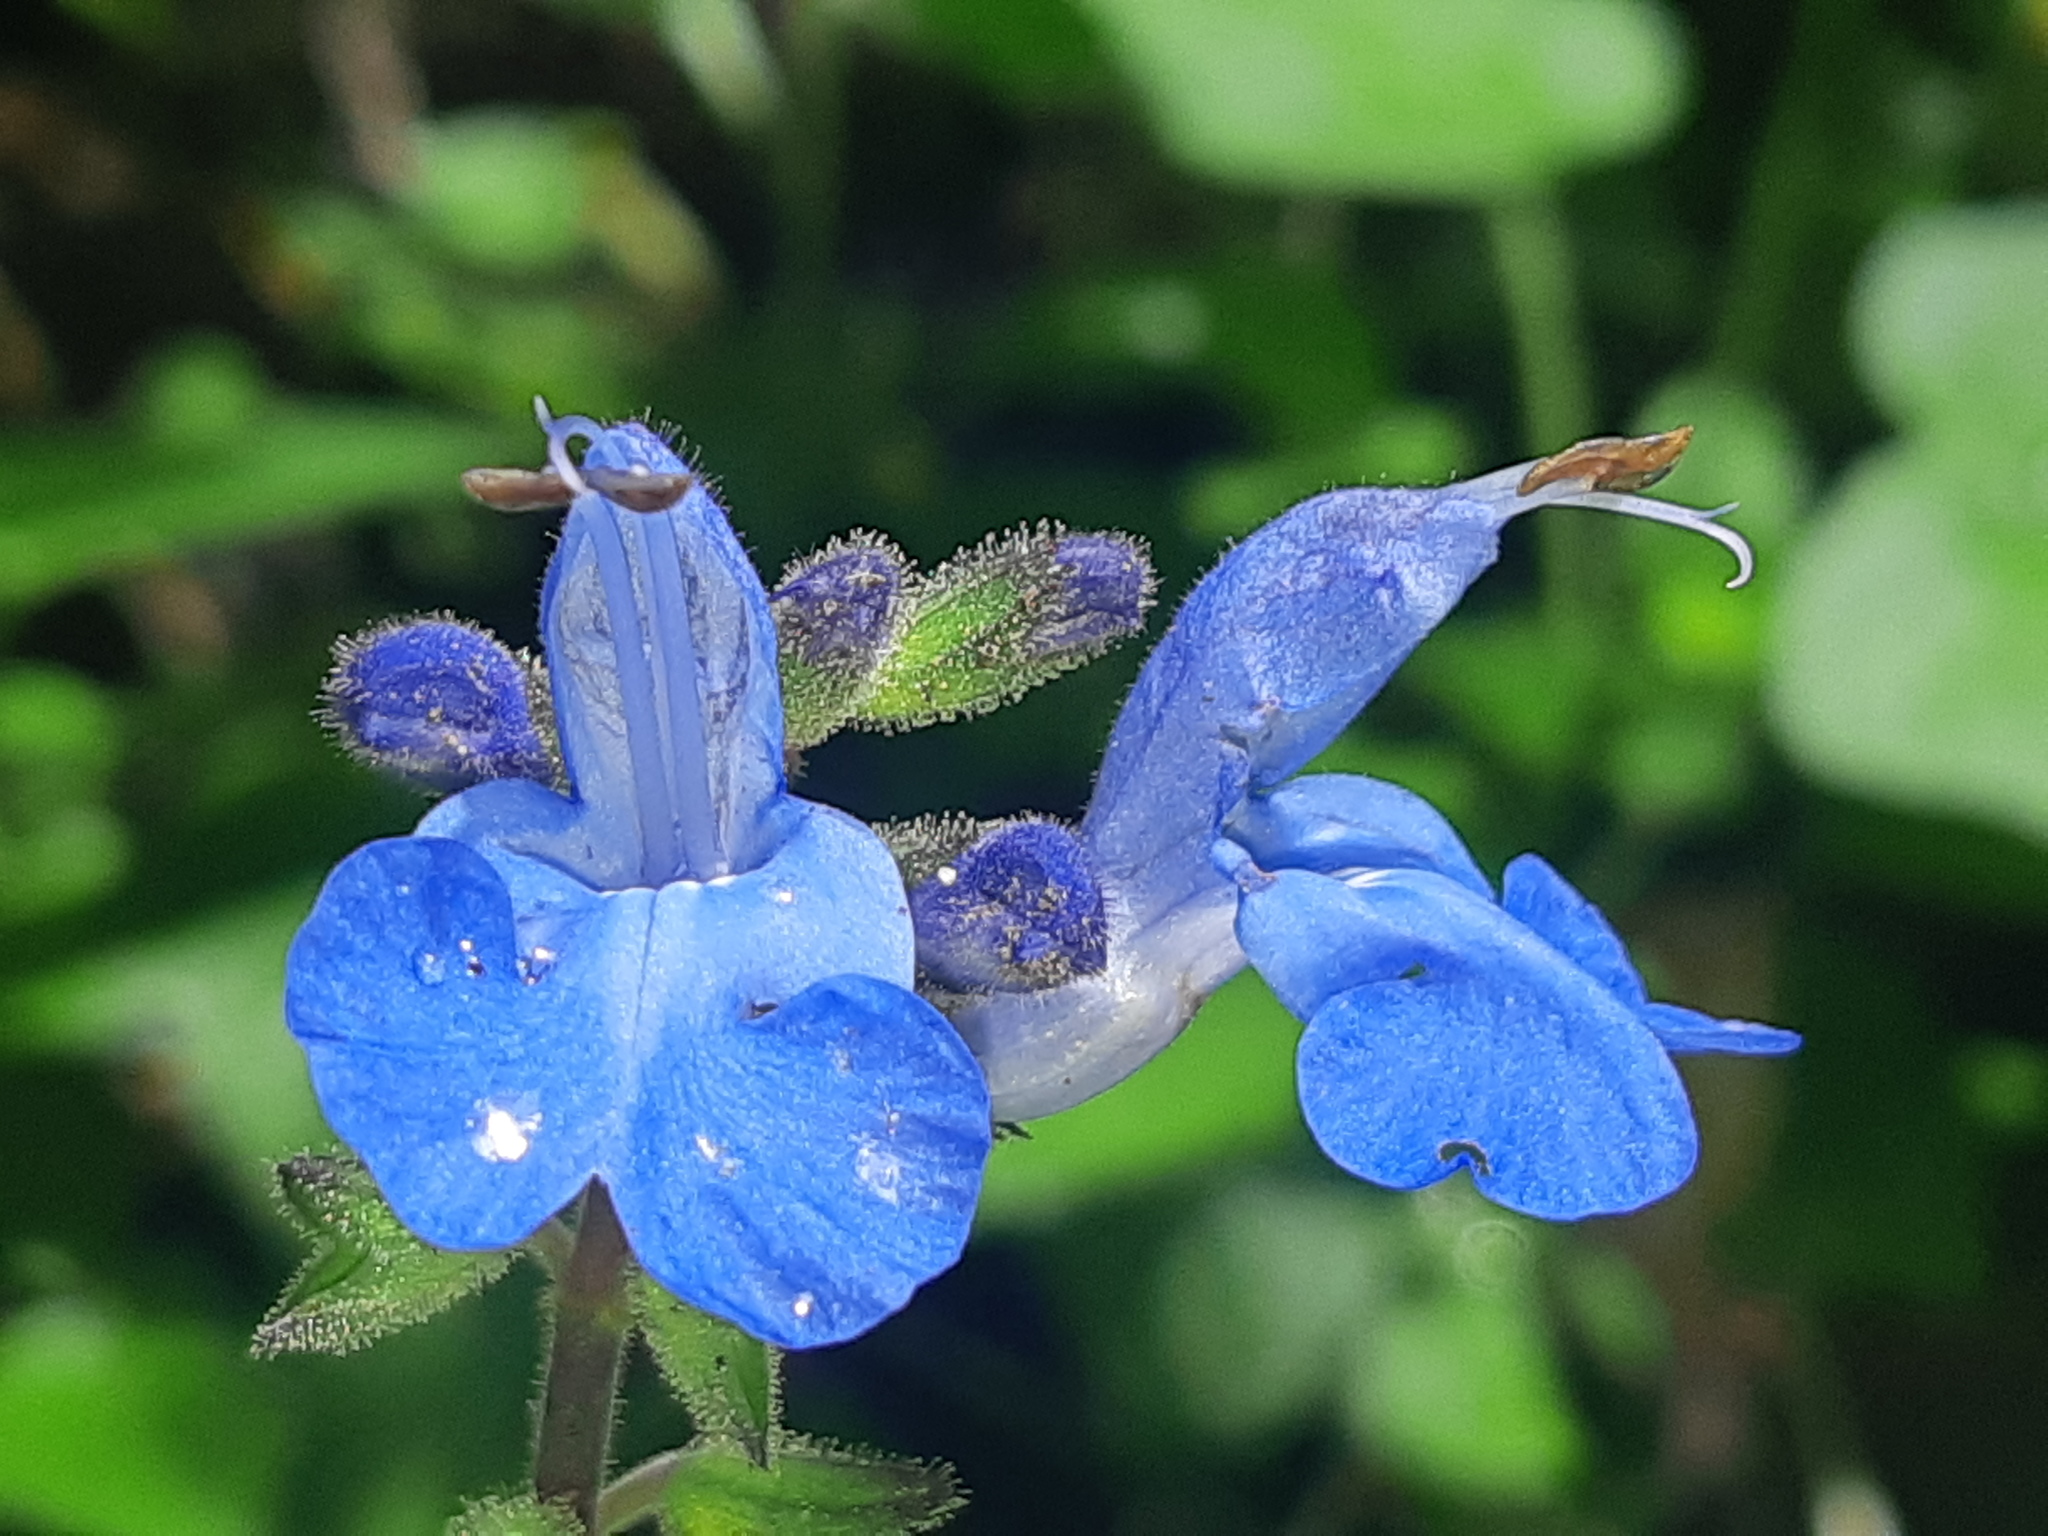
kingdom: Plantae
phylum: Tracheophyta
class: Magnoliopsida
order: Lamiales
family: Lamiaceae
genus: Salvia
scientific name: Salvia scutellarioides
